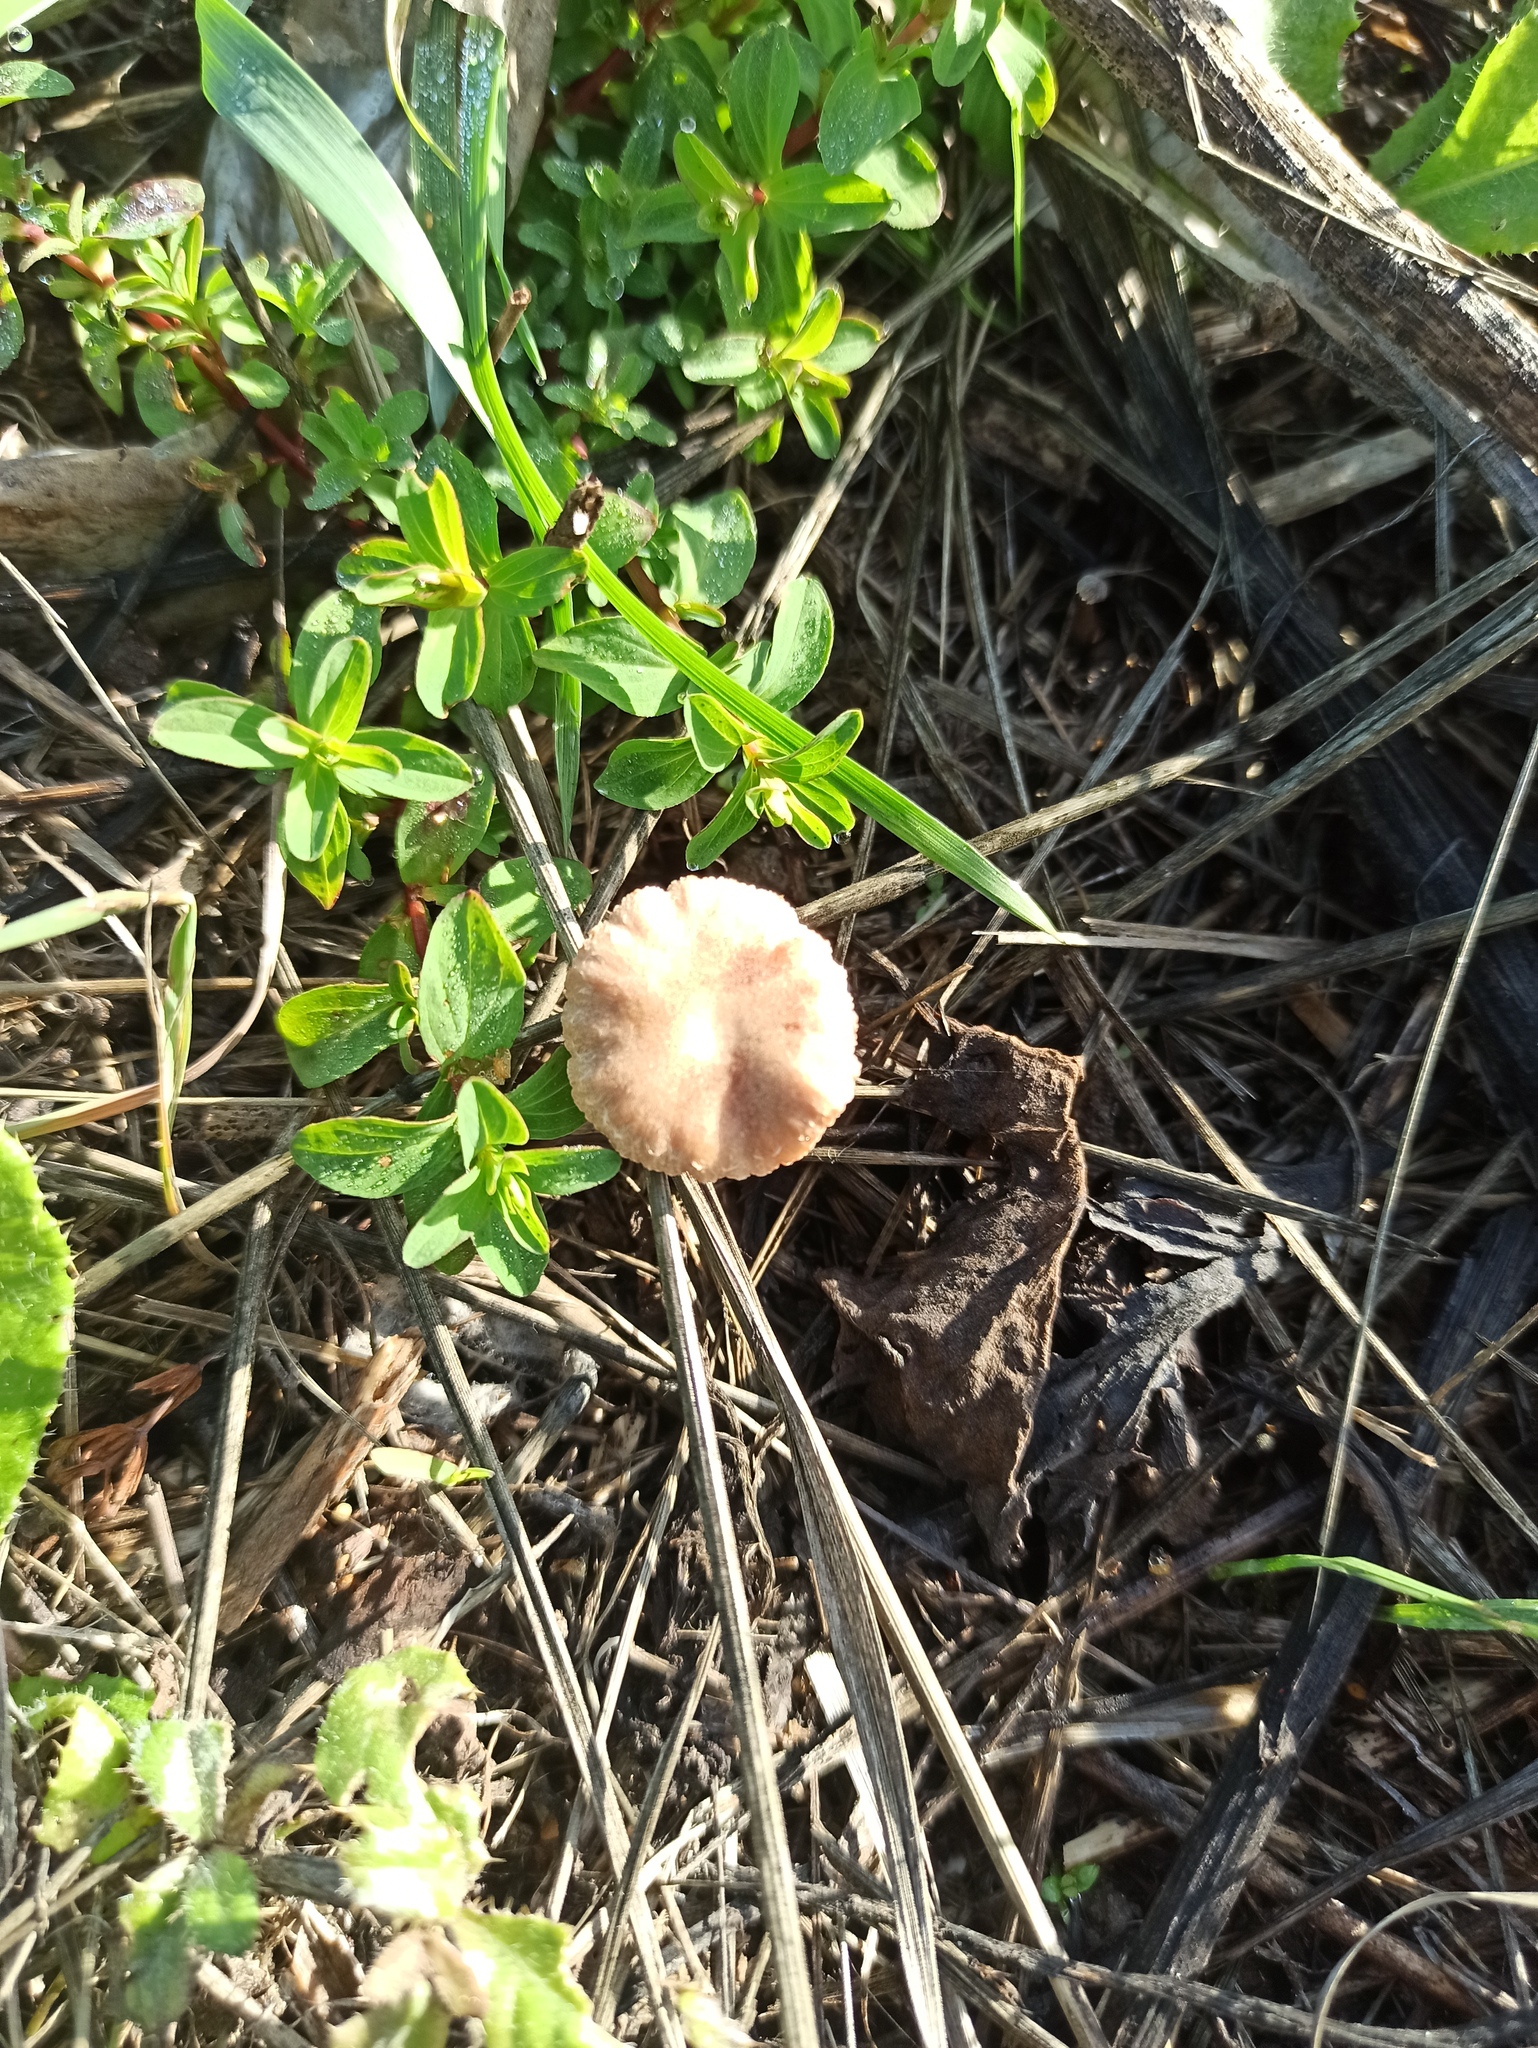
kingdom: Fungi
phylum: Basidiomycota
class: Agaricomycetes
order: Agaricales
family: Tubariaceae
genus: Tubaria
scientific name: Tubaria furfuracea
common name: Scurfy twiglet
